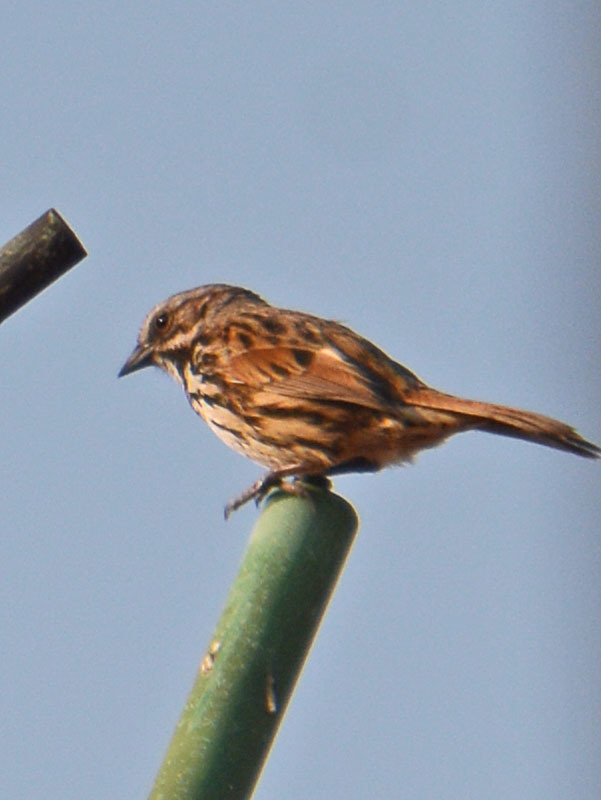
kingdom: Animalia
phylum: Chordata
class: Aves
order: Passeriformes
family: Passerellidae
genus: Melospiza
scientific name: Melospiza melodia
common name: Song sparrow
